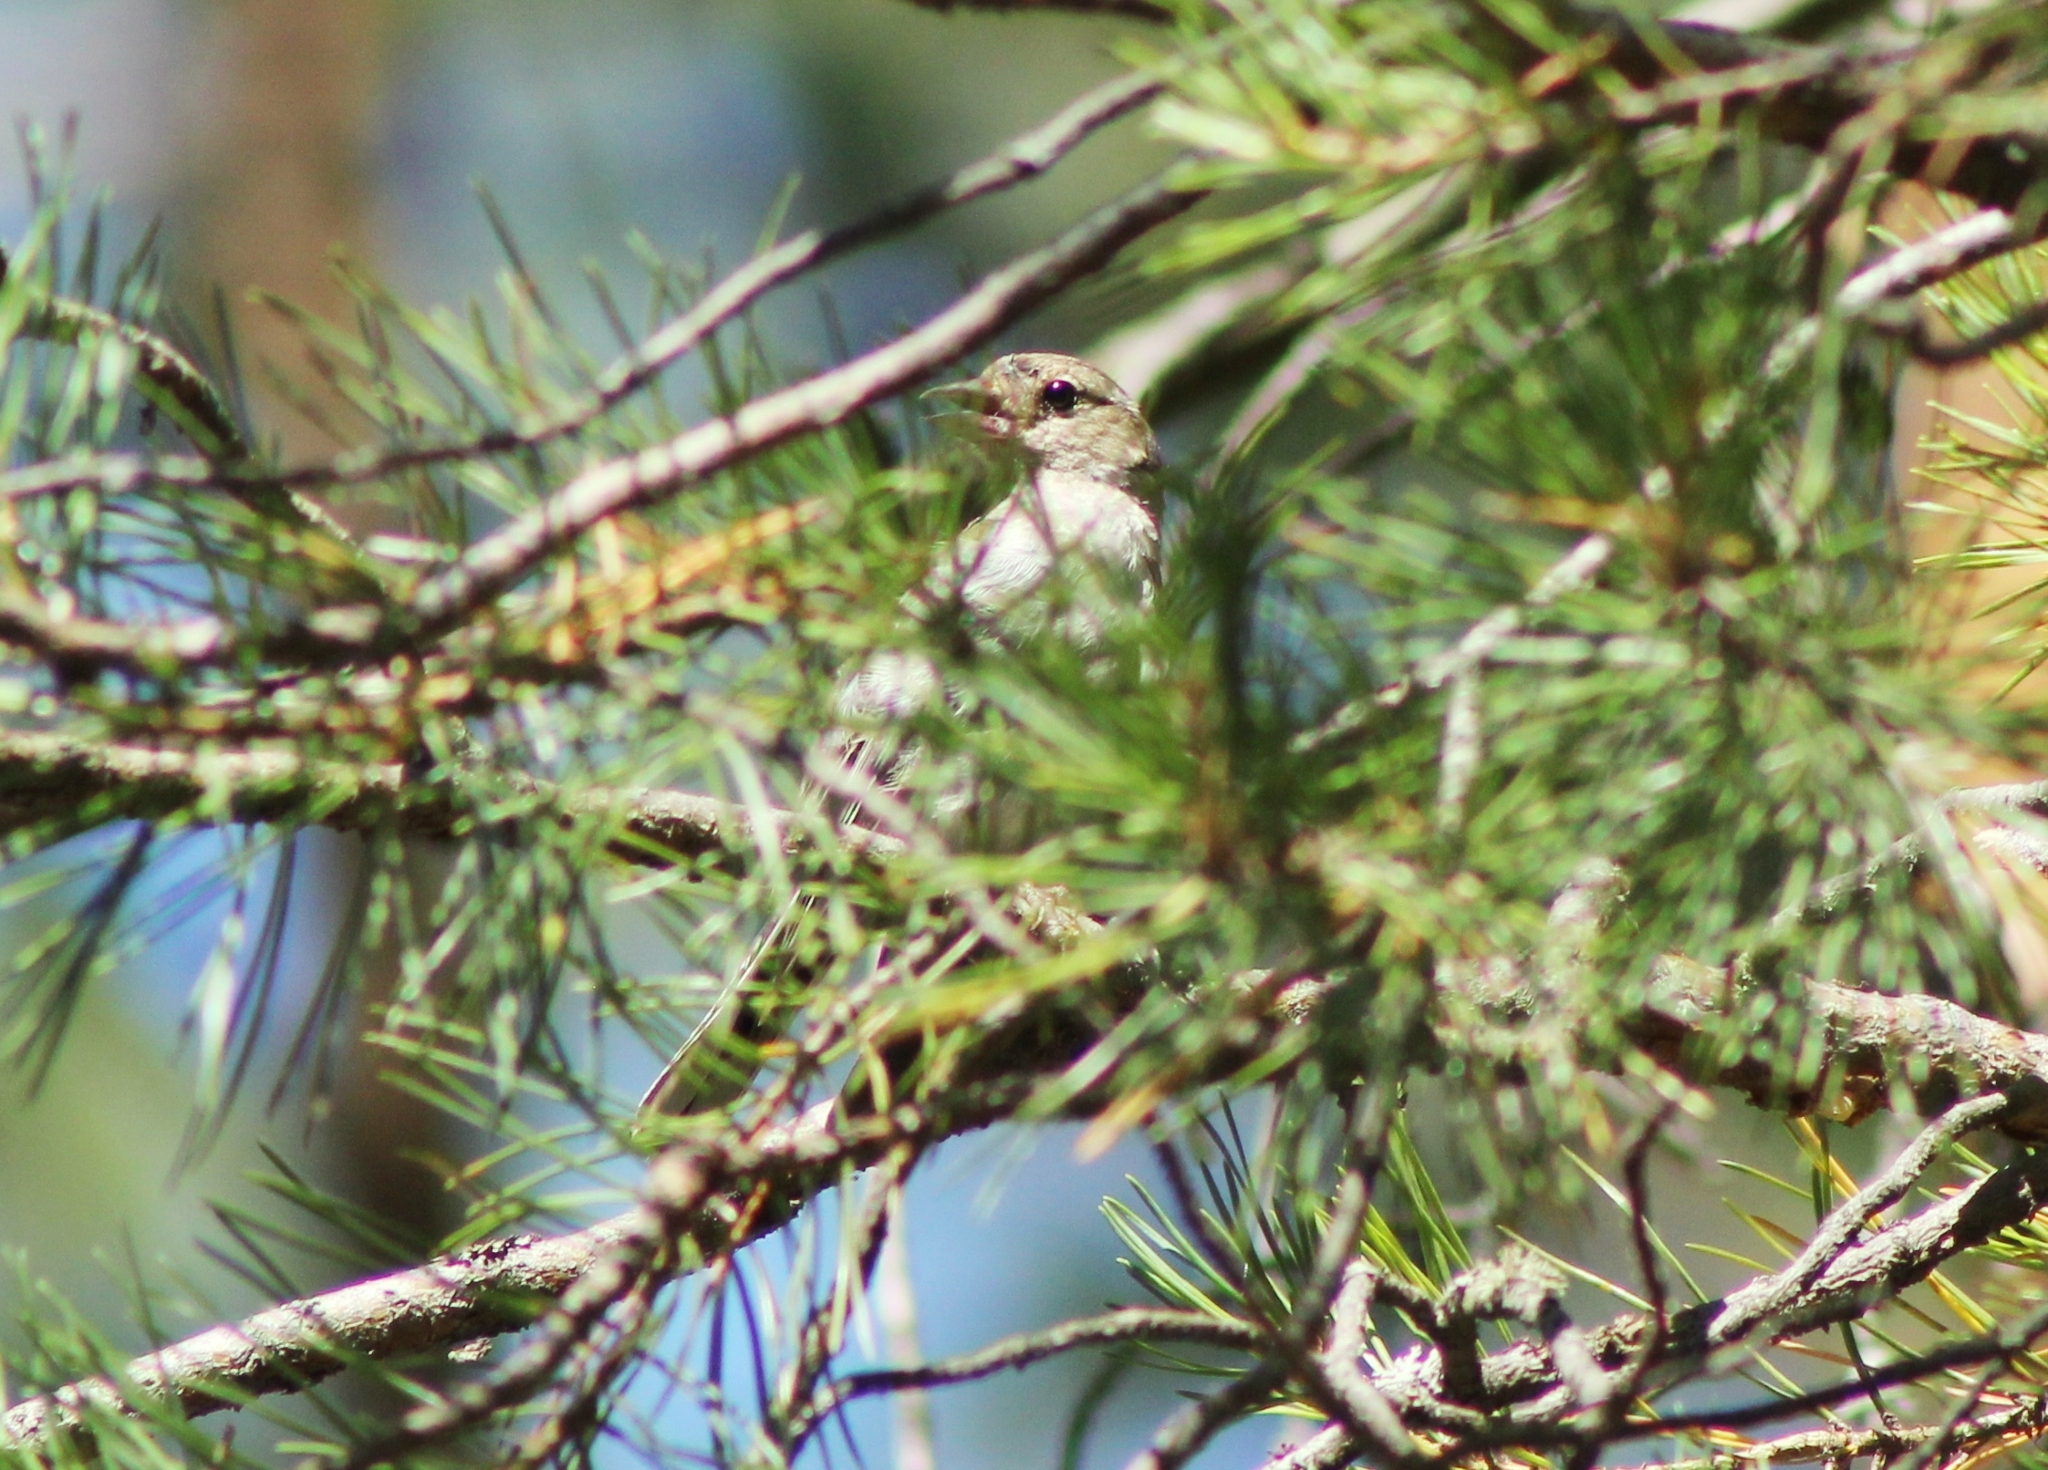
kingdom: Animalia
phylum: Chordata
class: Aves
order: Passeriformes
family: Fringillidae
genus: Fringilla
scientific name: Fringilla coelebs
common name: Common chaffinch
